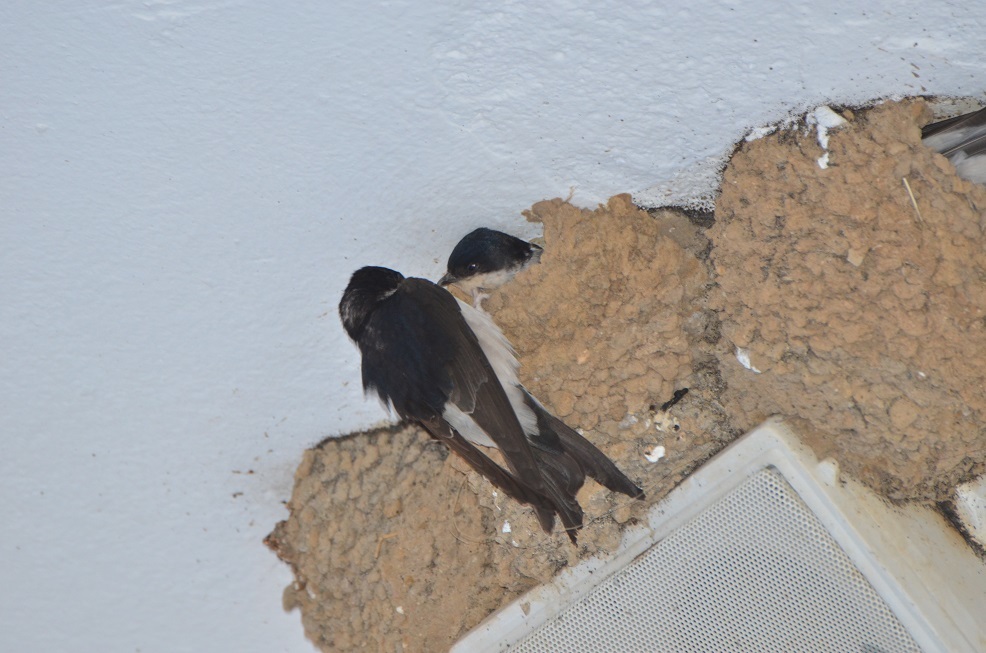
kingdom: Animalia
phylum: Chordata
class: Aves
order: Passeriformes
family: Hirundinidae
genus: Delichon
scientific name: Delichon urbicum
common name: Common house martin
